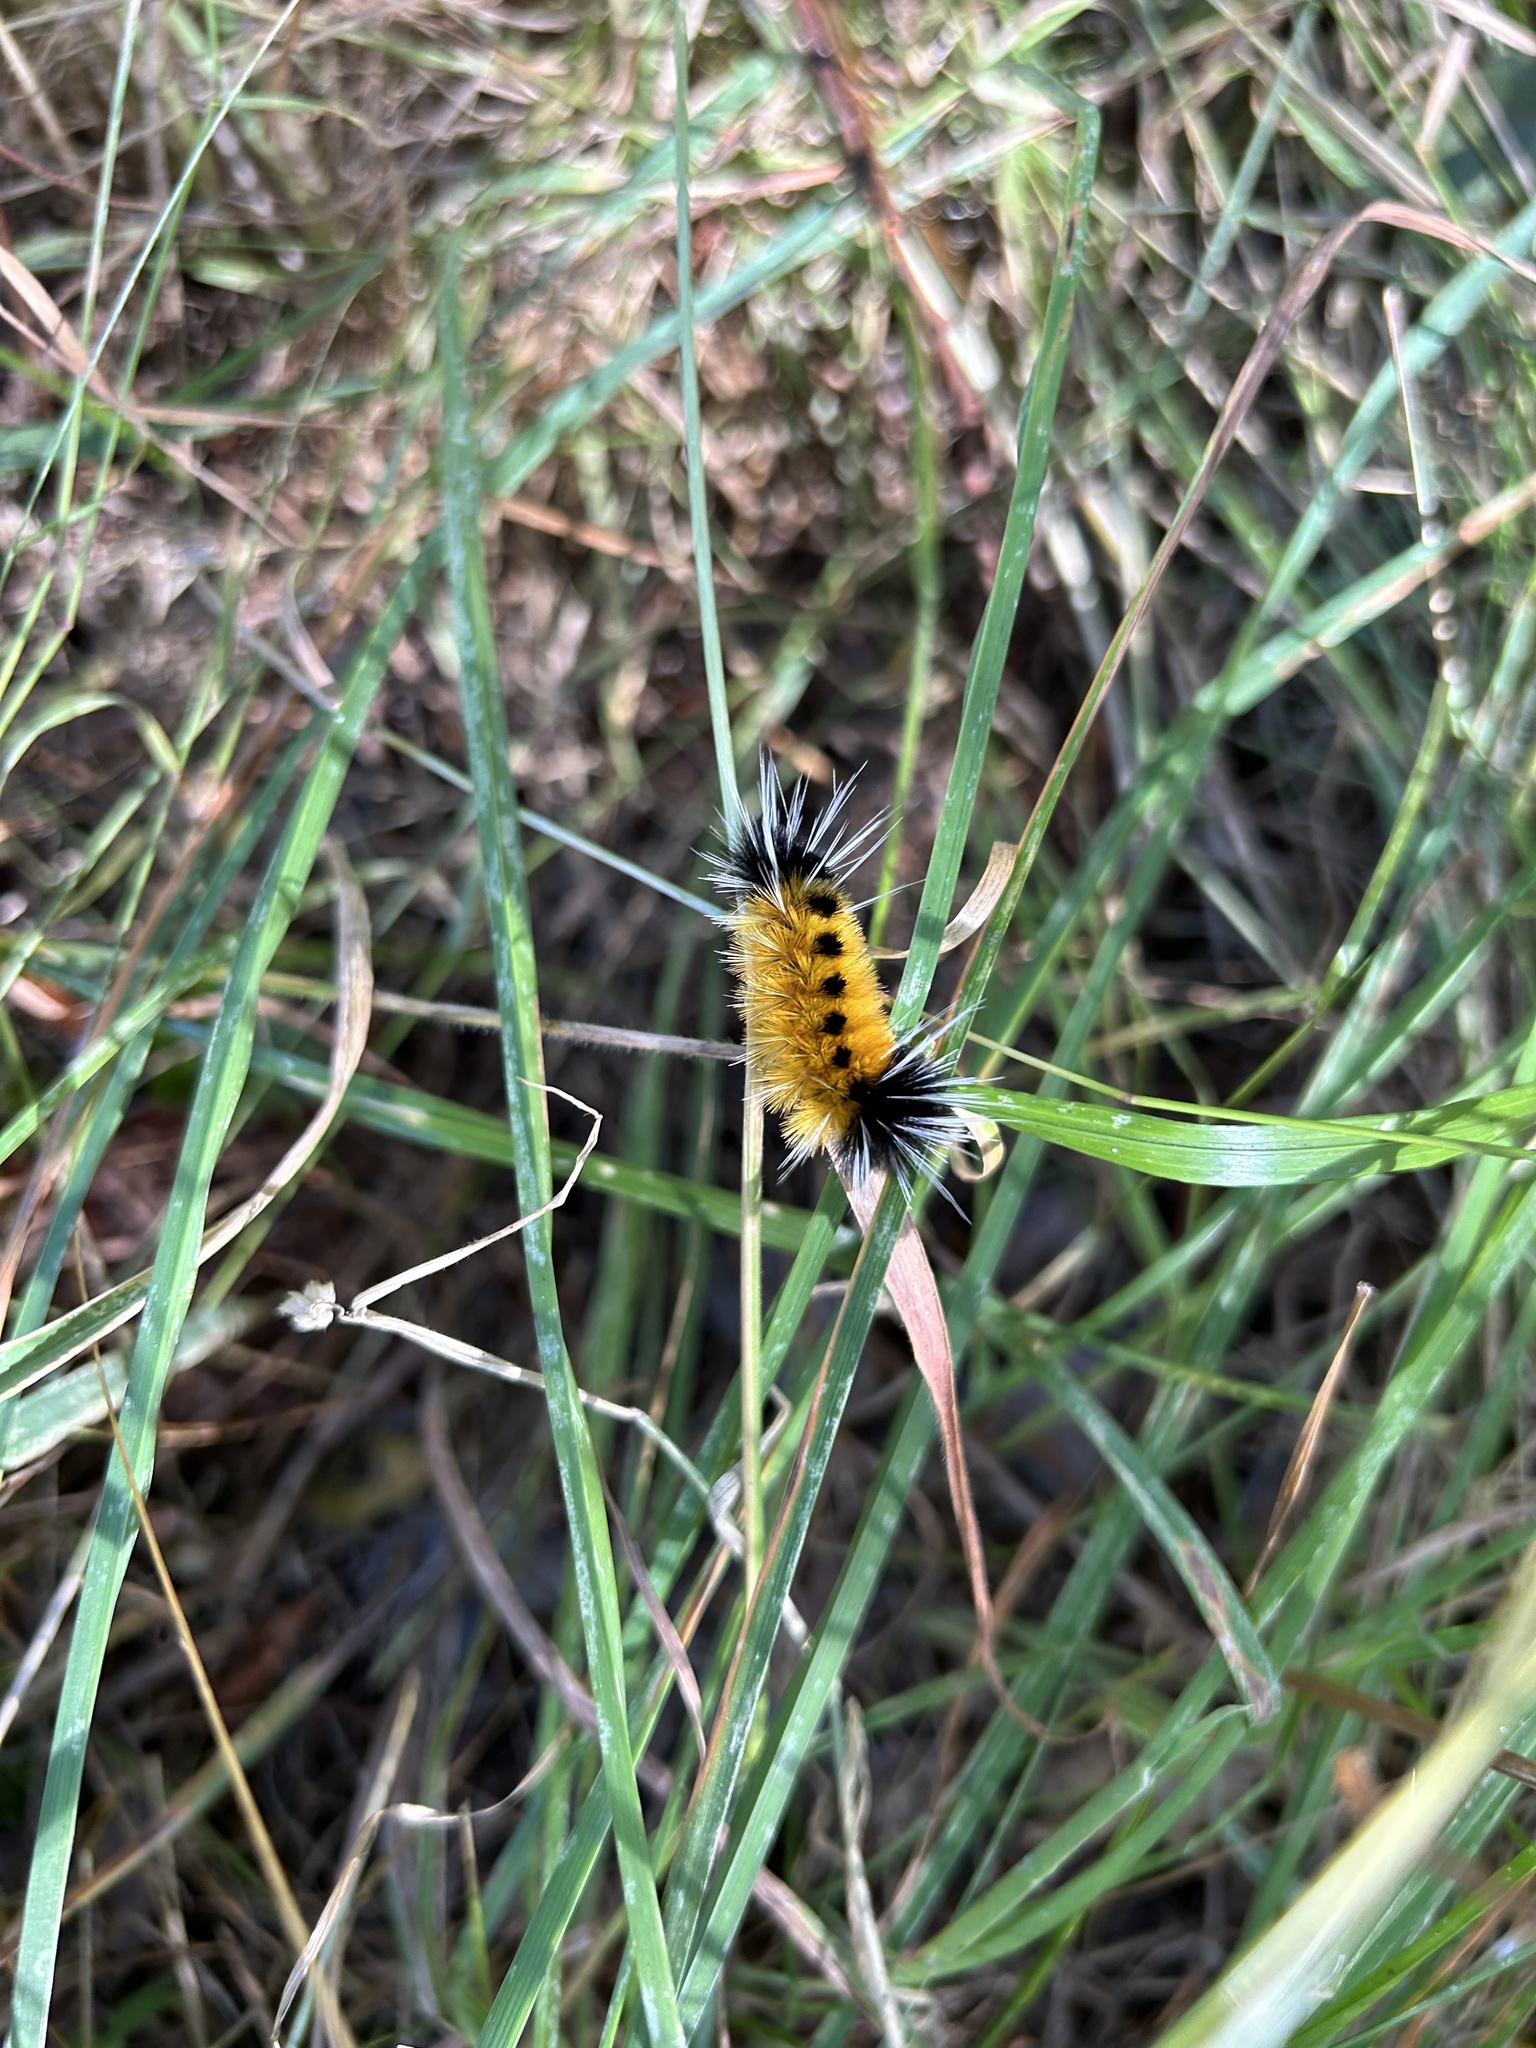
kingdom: Animalia
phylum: Arthropoda
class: Insecta
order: Lepidoptera
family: Erebidae
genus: Lophocampa
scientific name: Lophocampa maculata
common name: Spotted tussock moth
